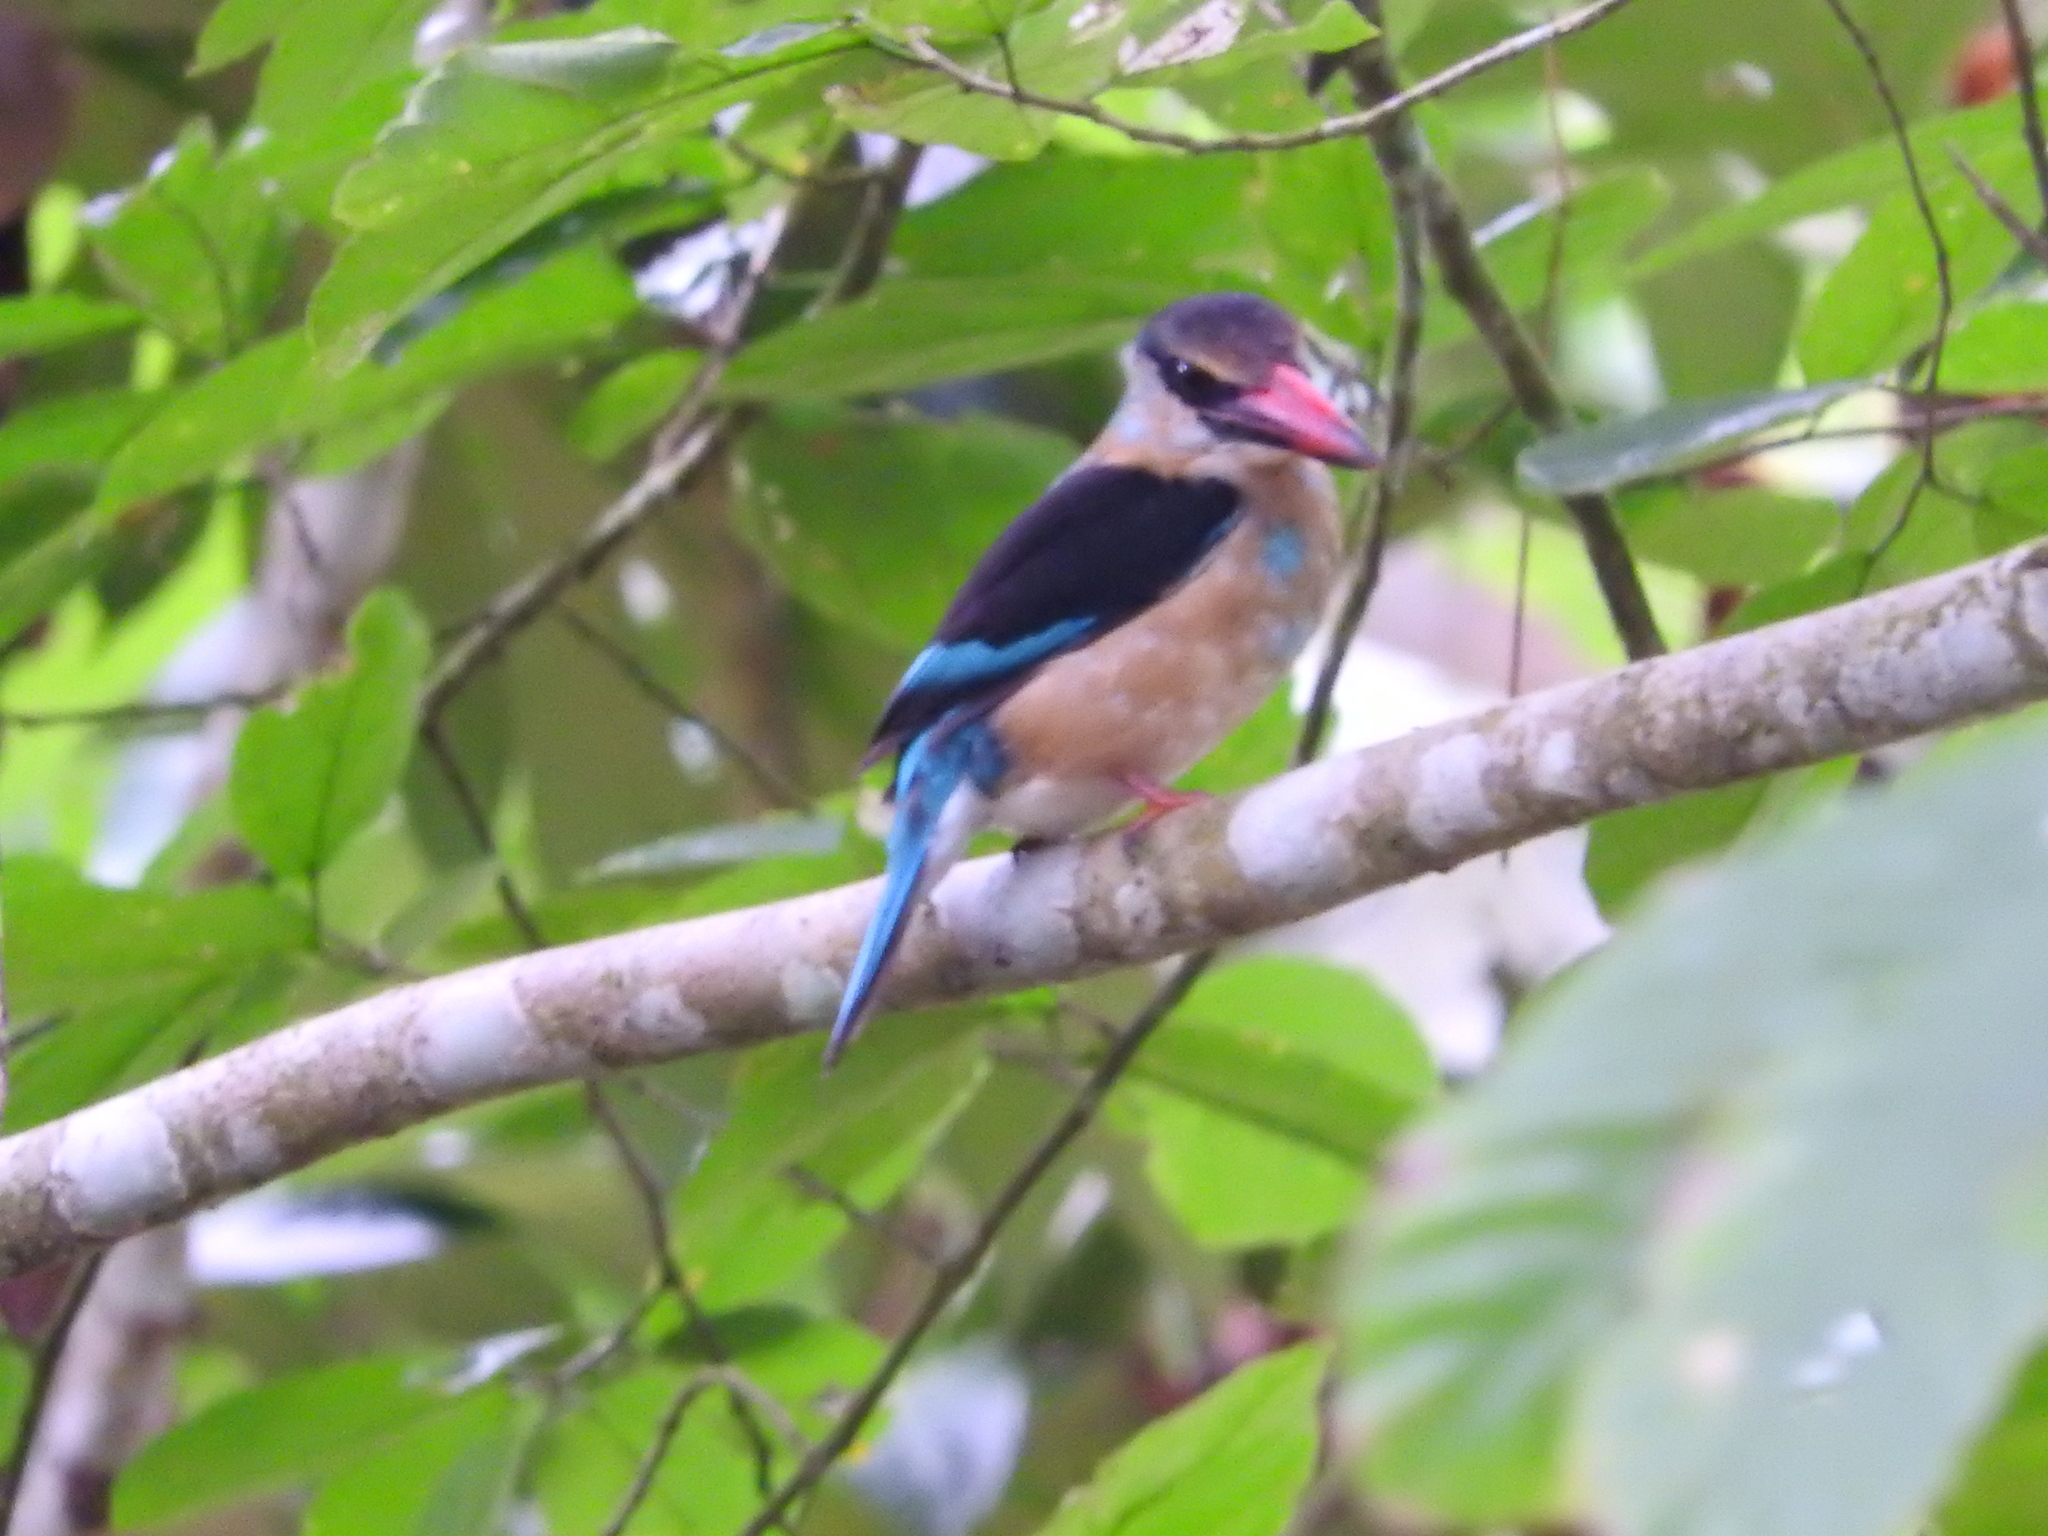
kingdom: Animalia
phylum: Chordata
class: Aves
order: Coraciiformes
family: Alcedinidae
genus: Halcyon
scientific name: Halcyon malimbica
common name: Blue-breasted kingfisher
